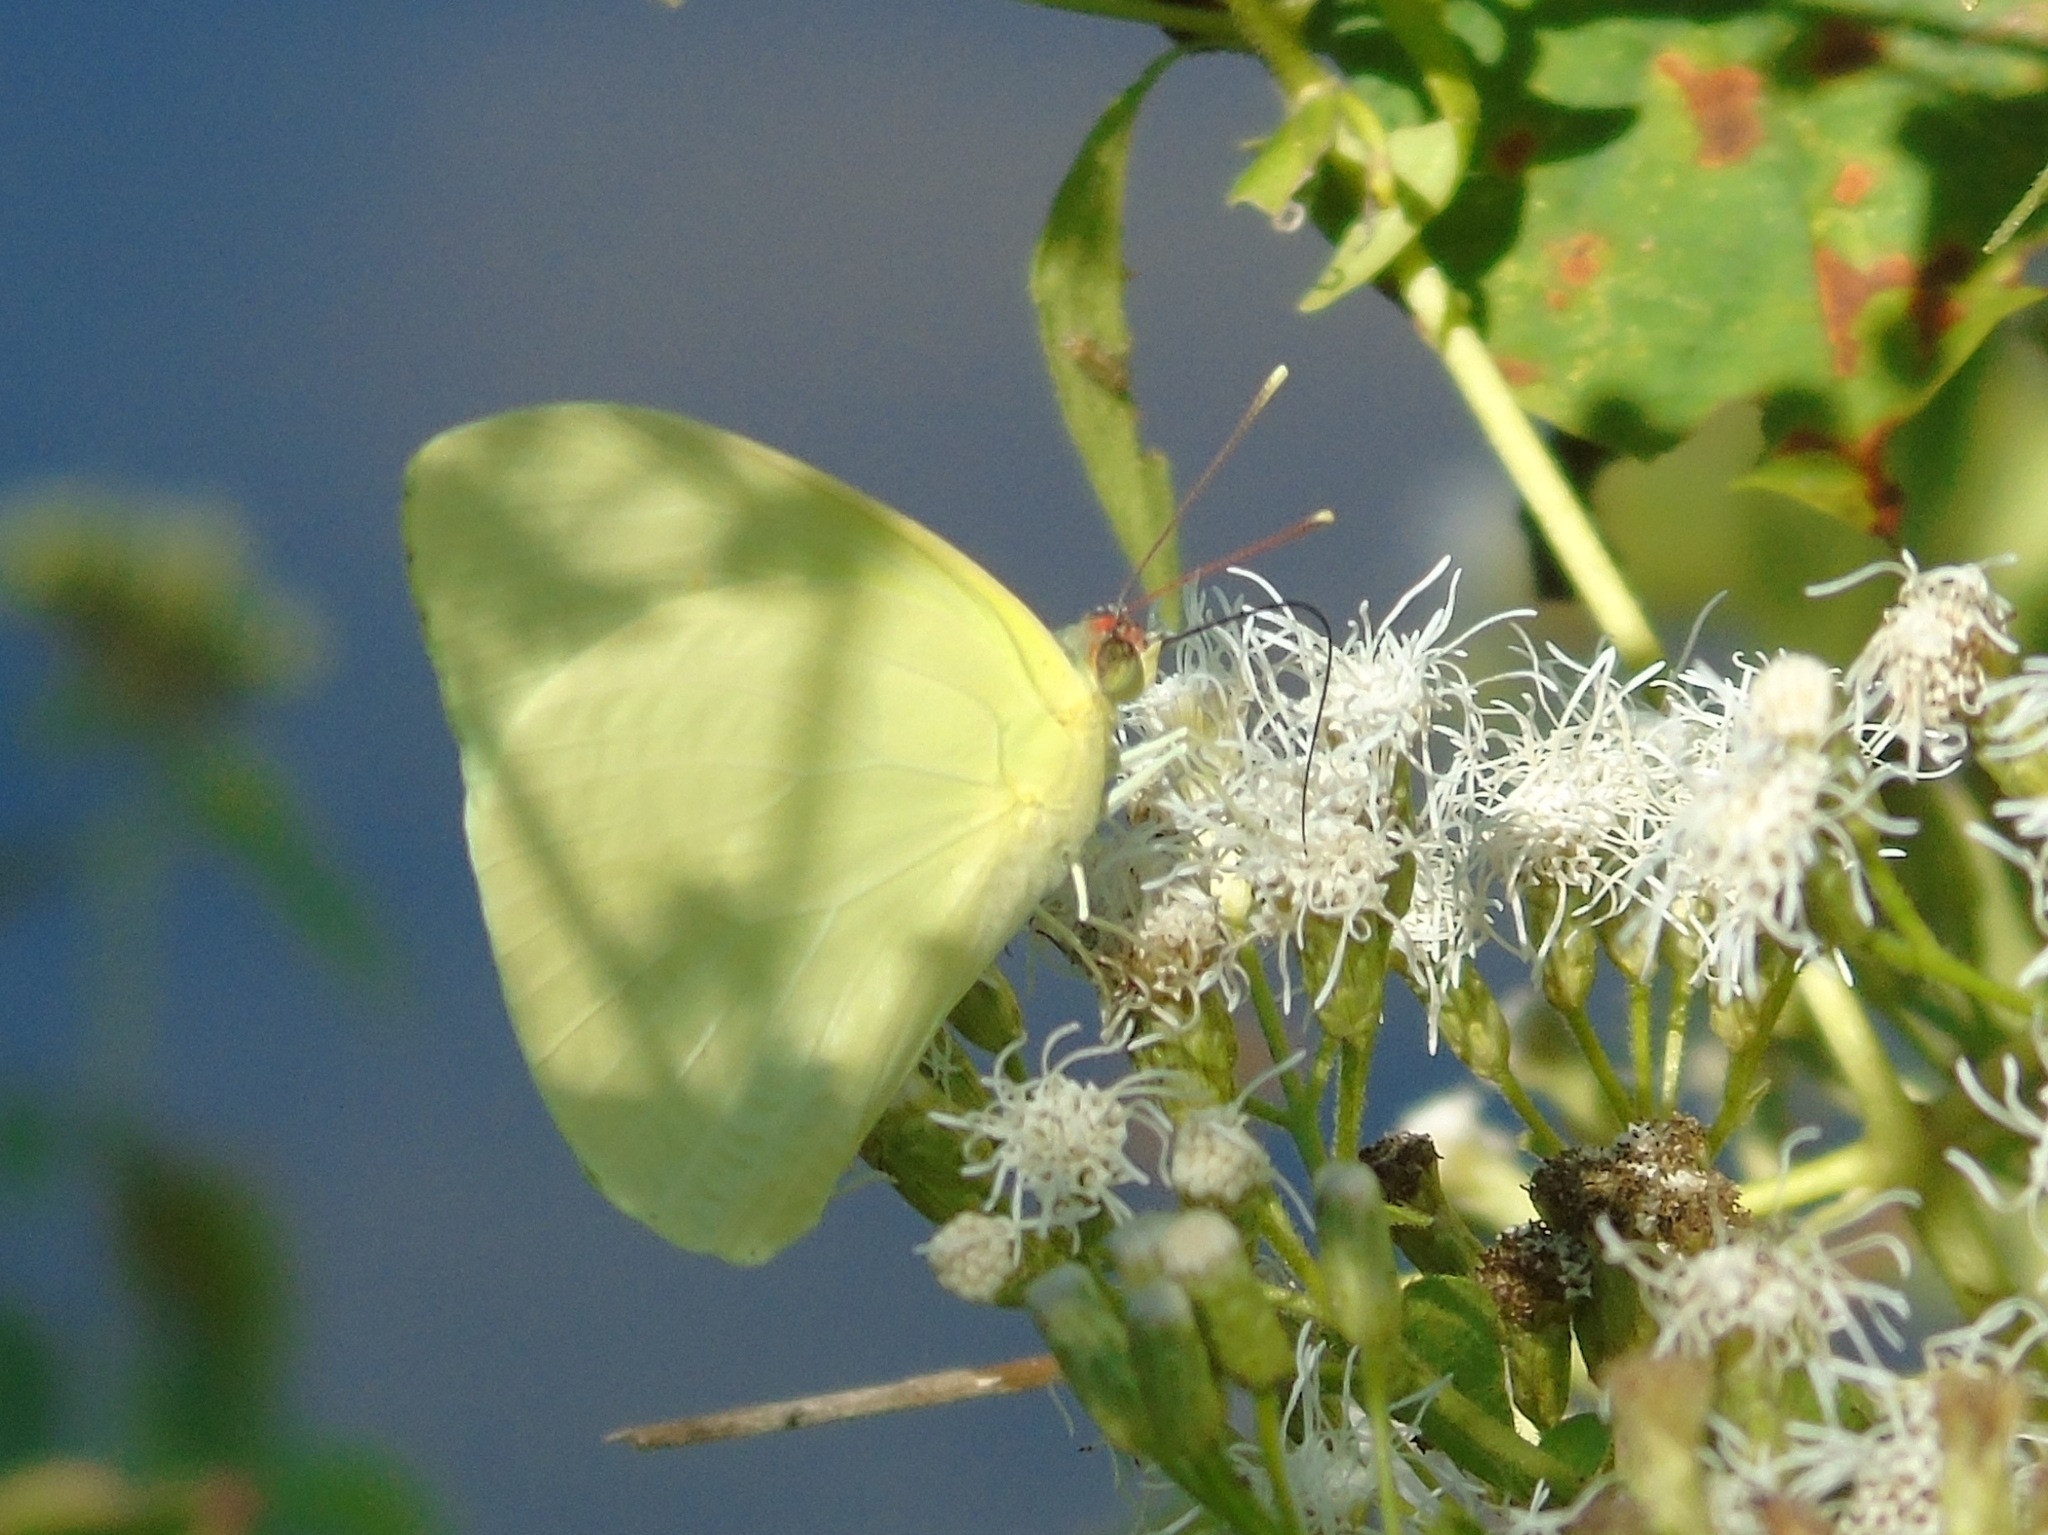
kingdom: Animalia
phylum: Arthropoda
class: Insecta
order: Lepidoptera
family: Pieridae
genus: Aphrissa
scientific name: Aphrissa statira
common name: Statira sulphur
